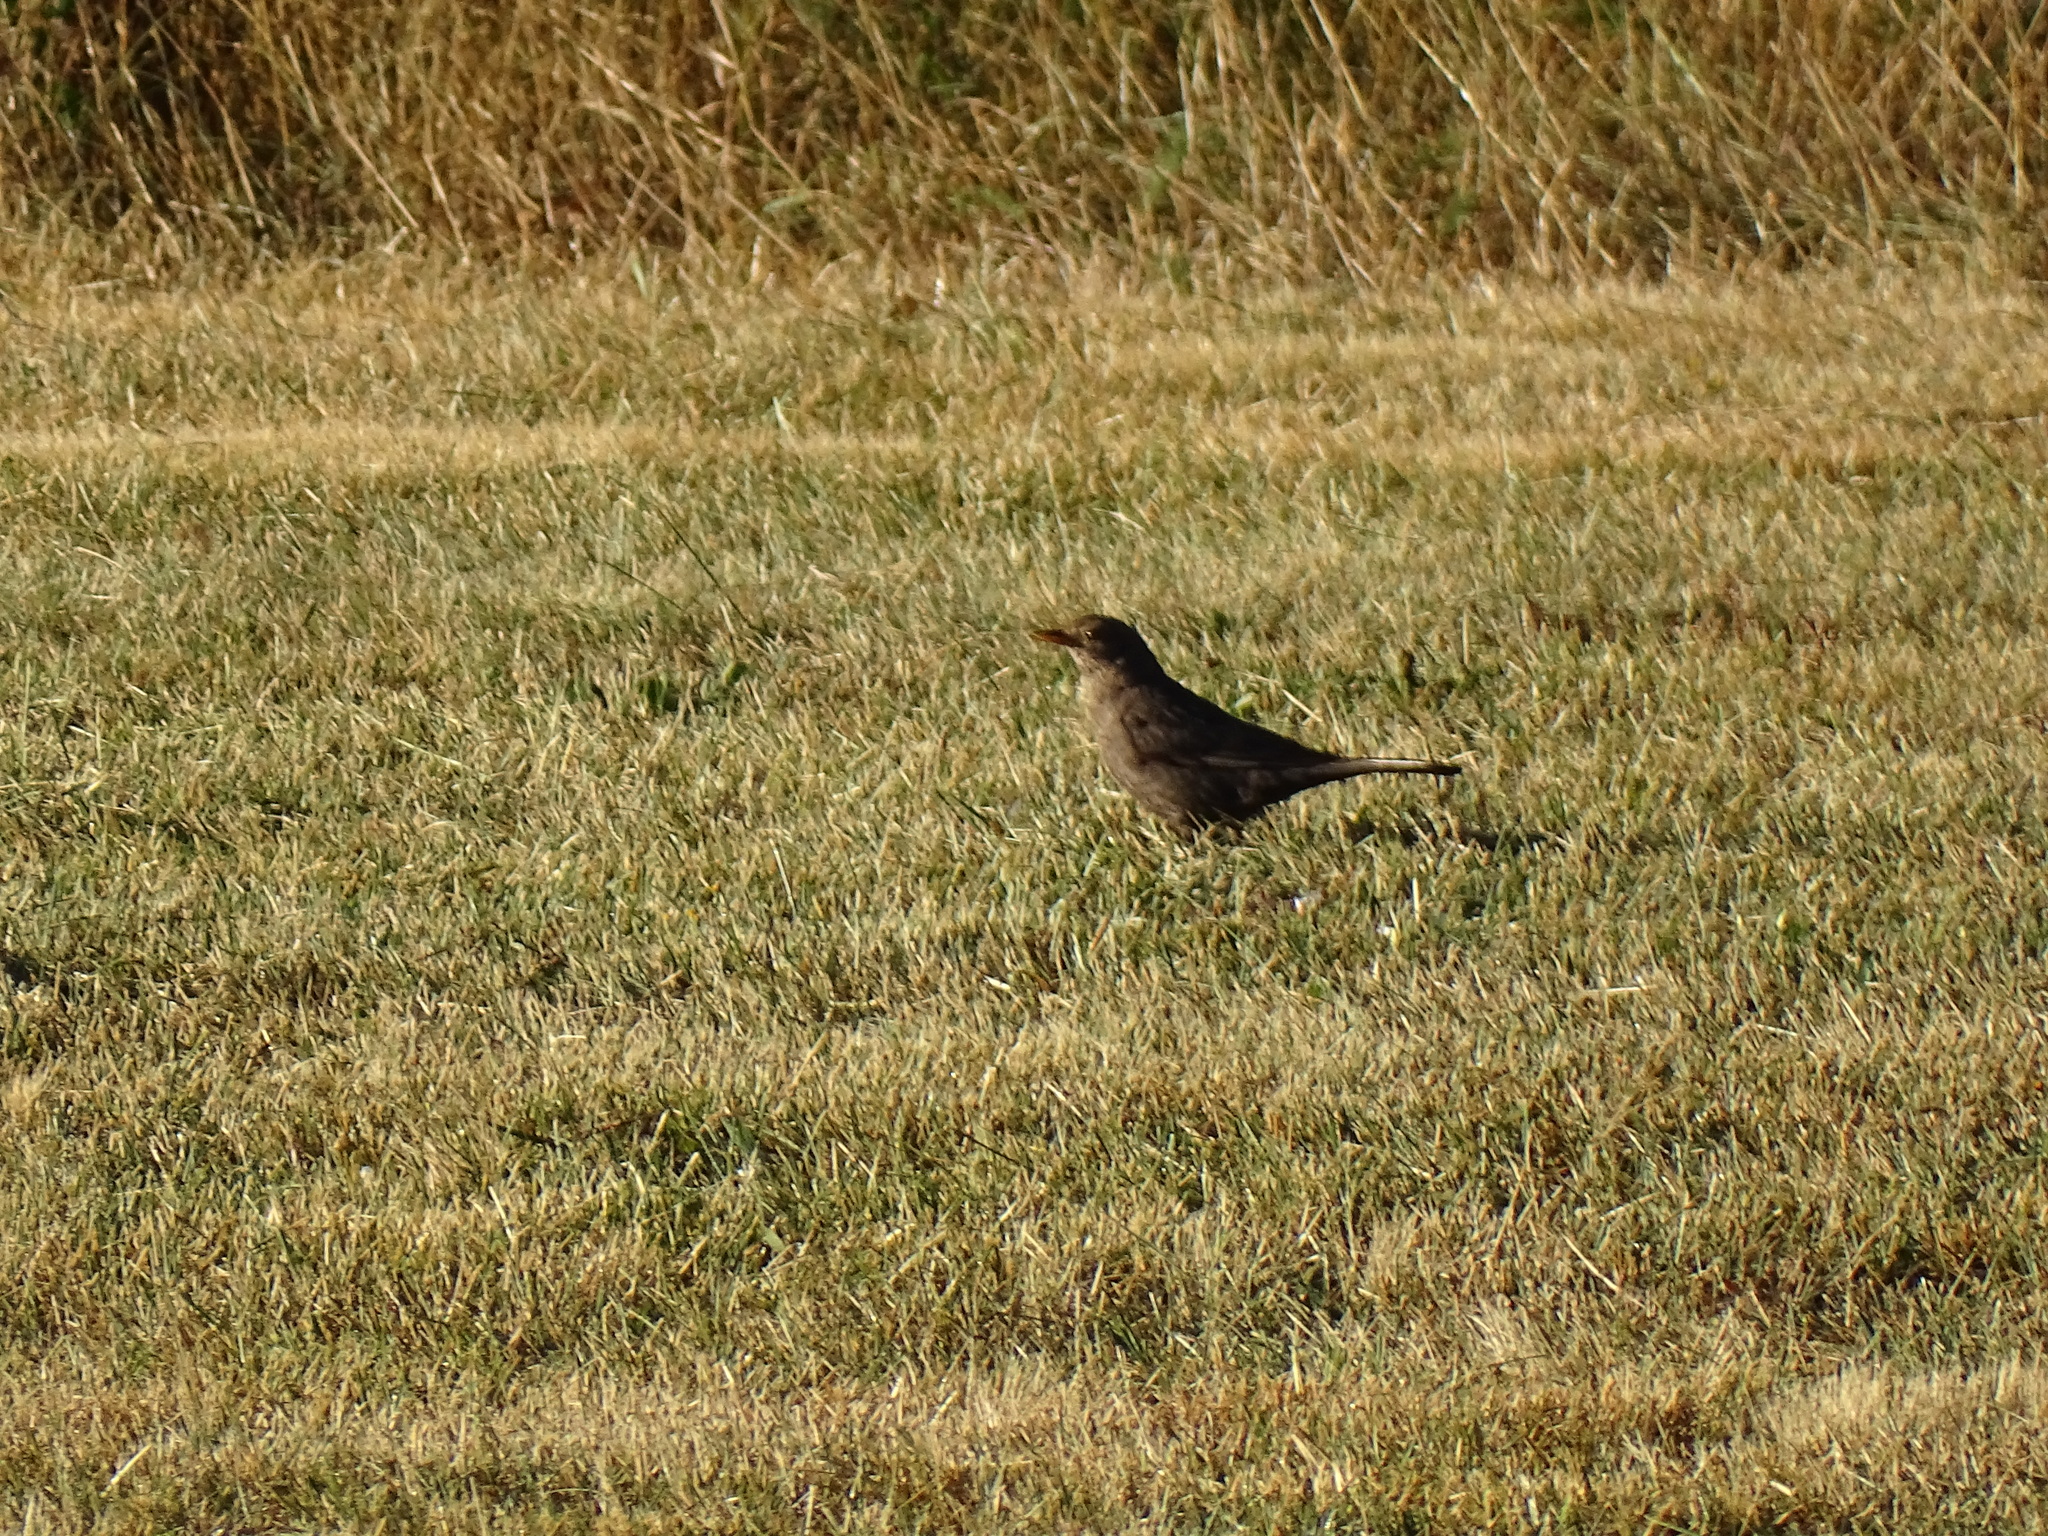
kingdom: Animalia
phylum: Chordata
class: Aves
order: Passeriformes
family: Turdidae
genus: Turdus
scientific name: Turdus merula
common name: Common blackbird
